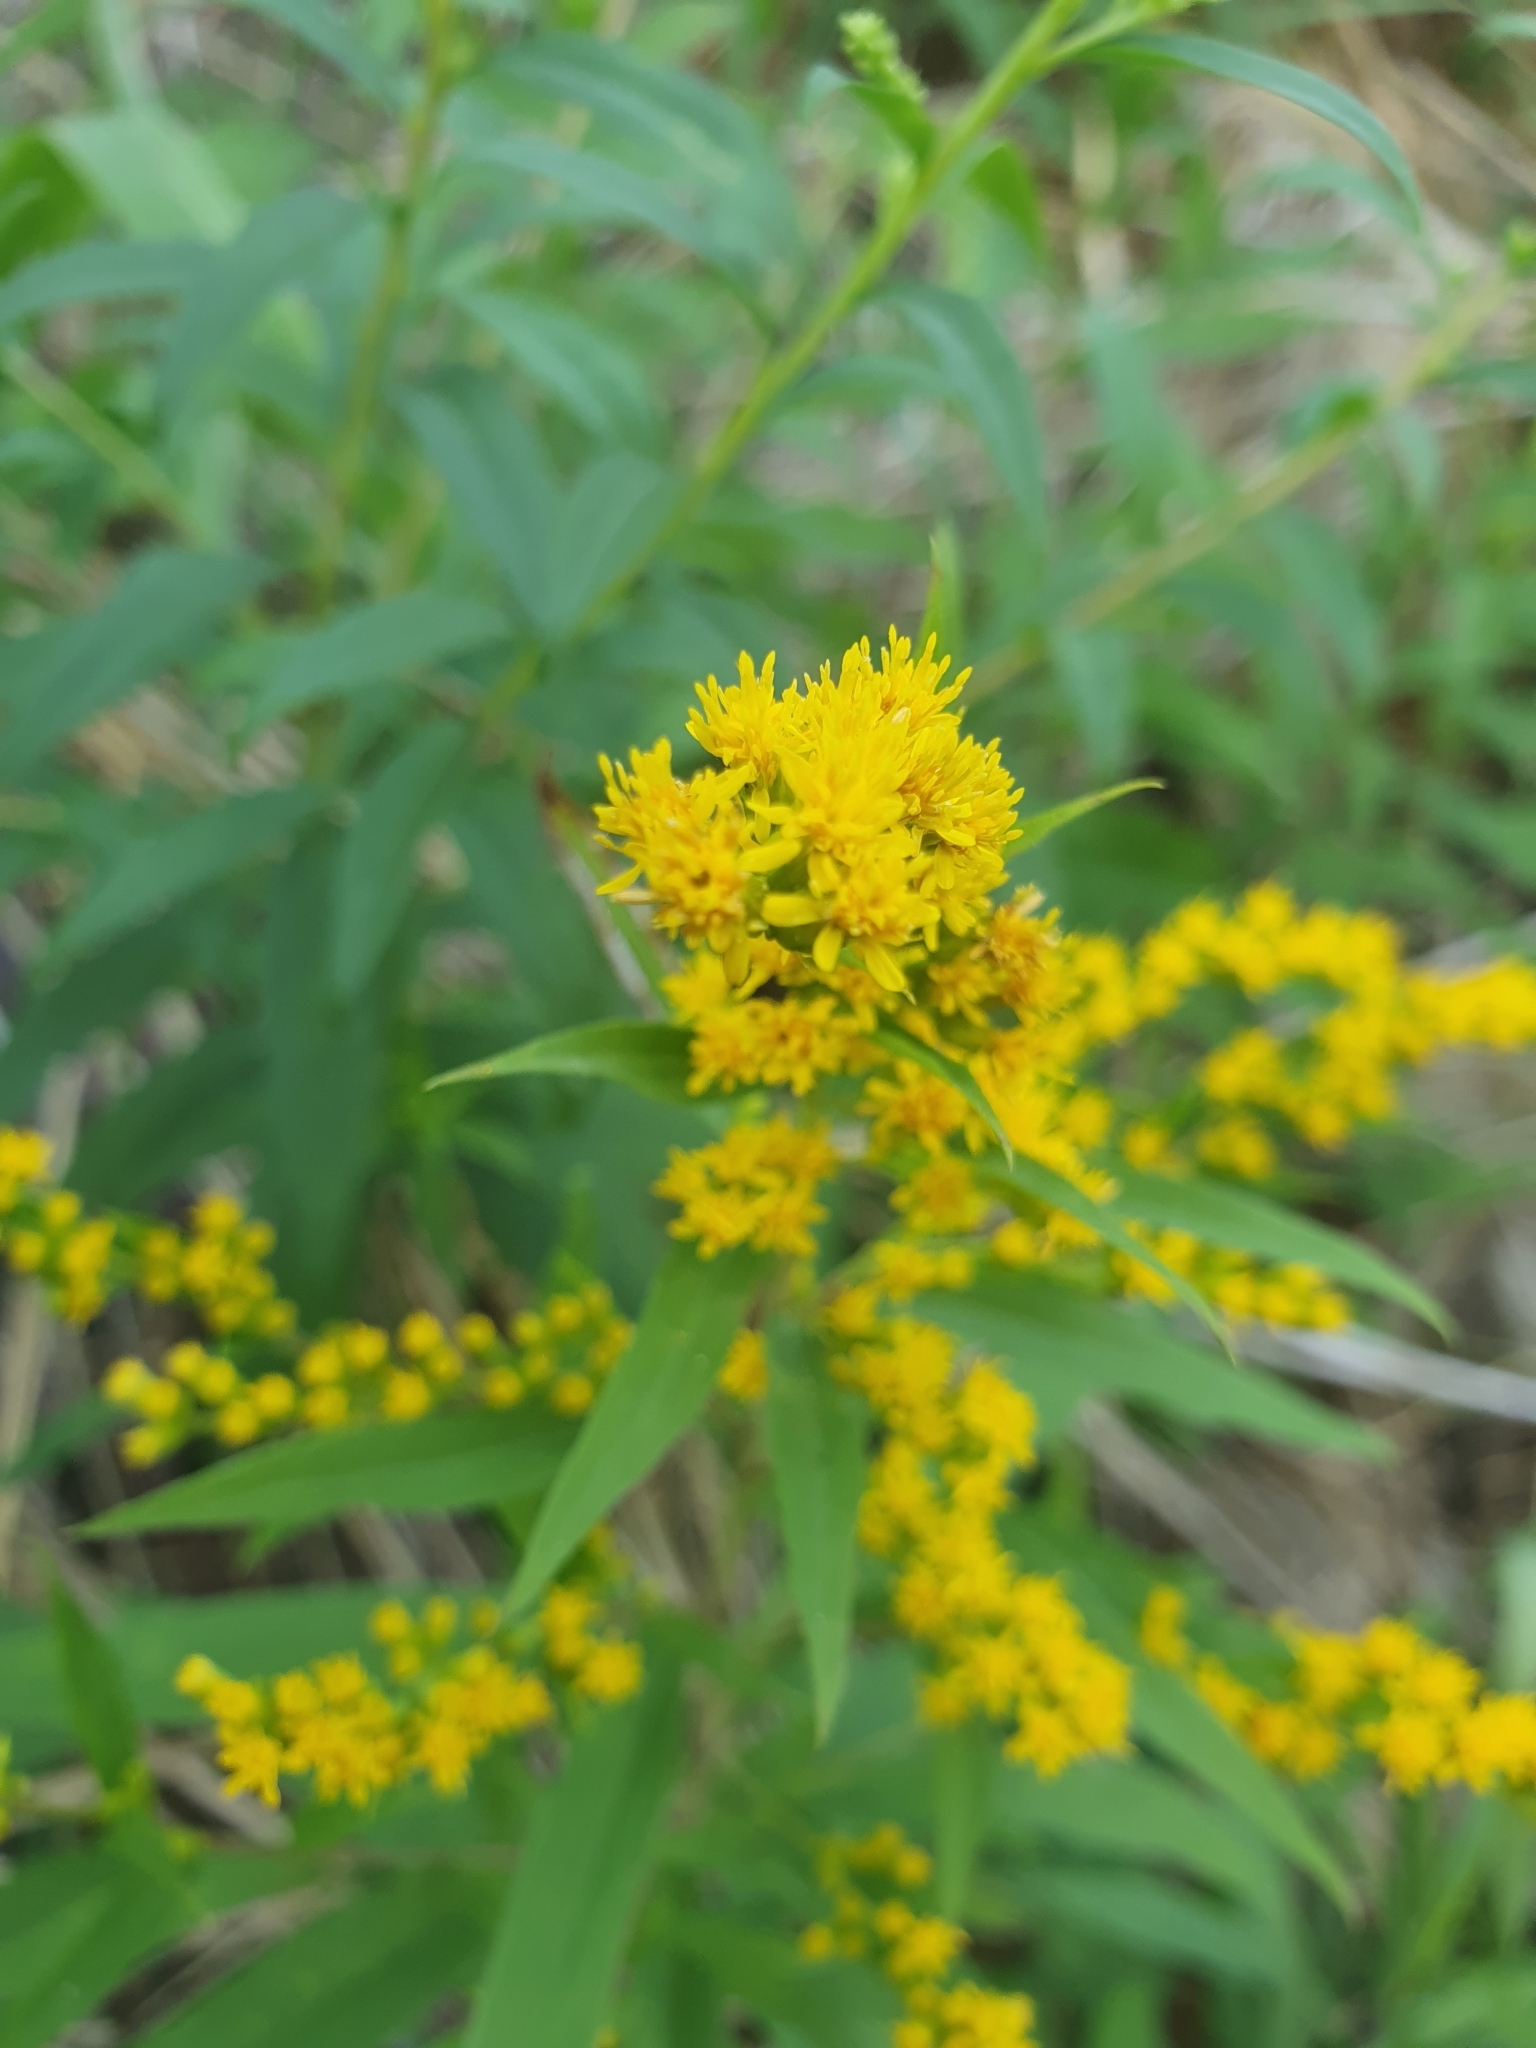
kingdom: Plantae
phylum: Tracheophyta
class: Magnoliopsida
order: Asterales
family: Asteraceae
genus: Solidago
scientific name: Solidago gigantea
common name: Giant goldenrod
